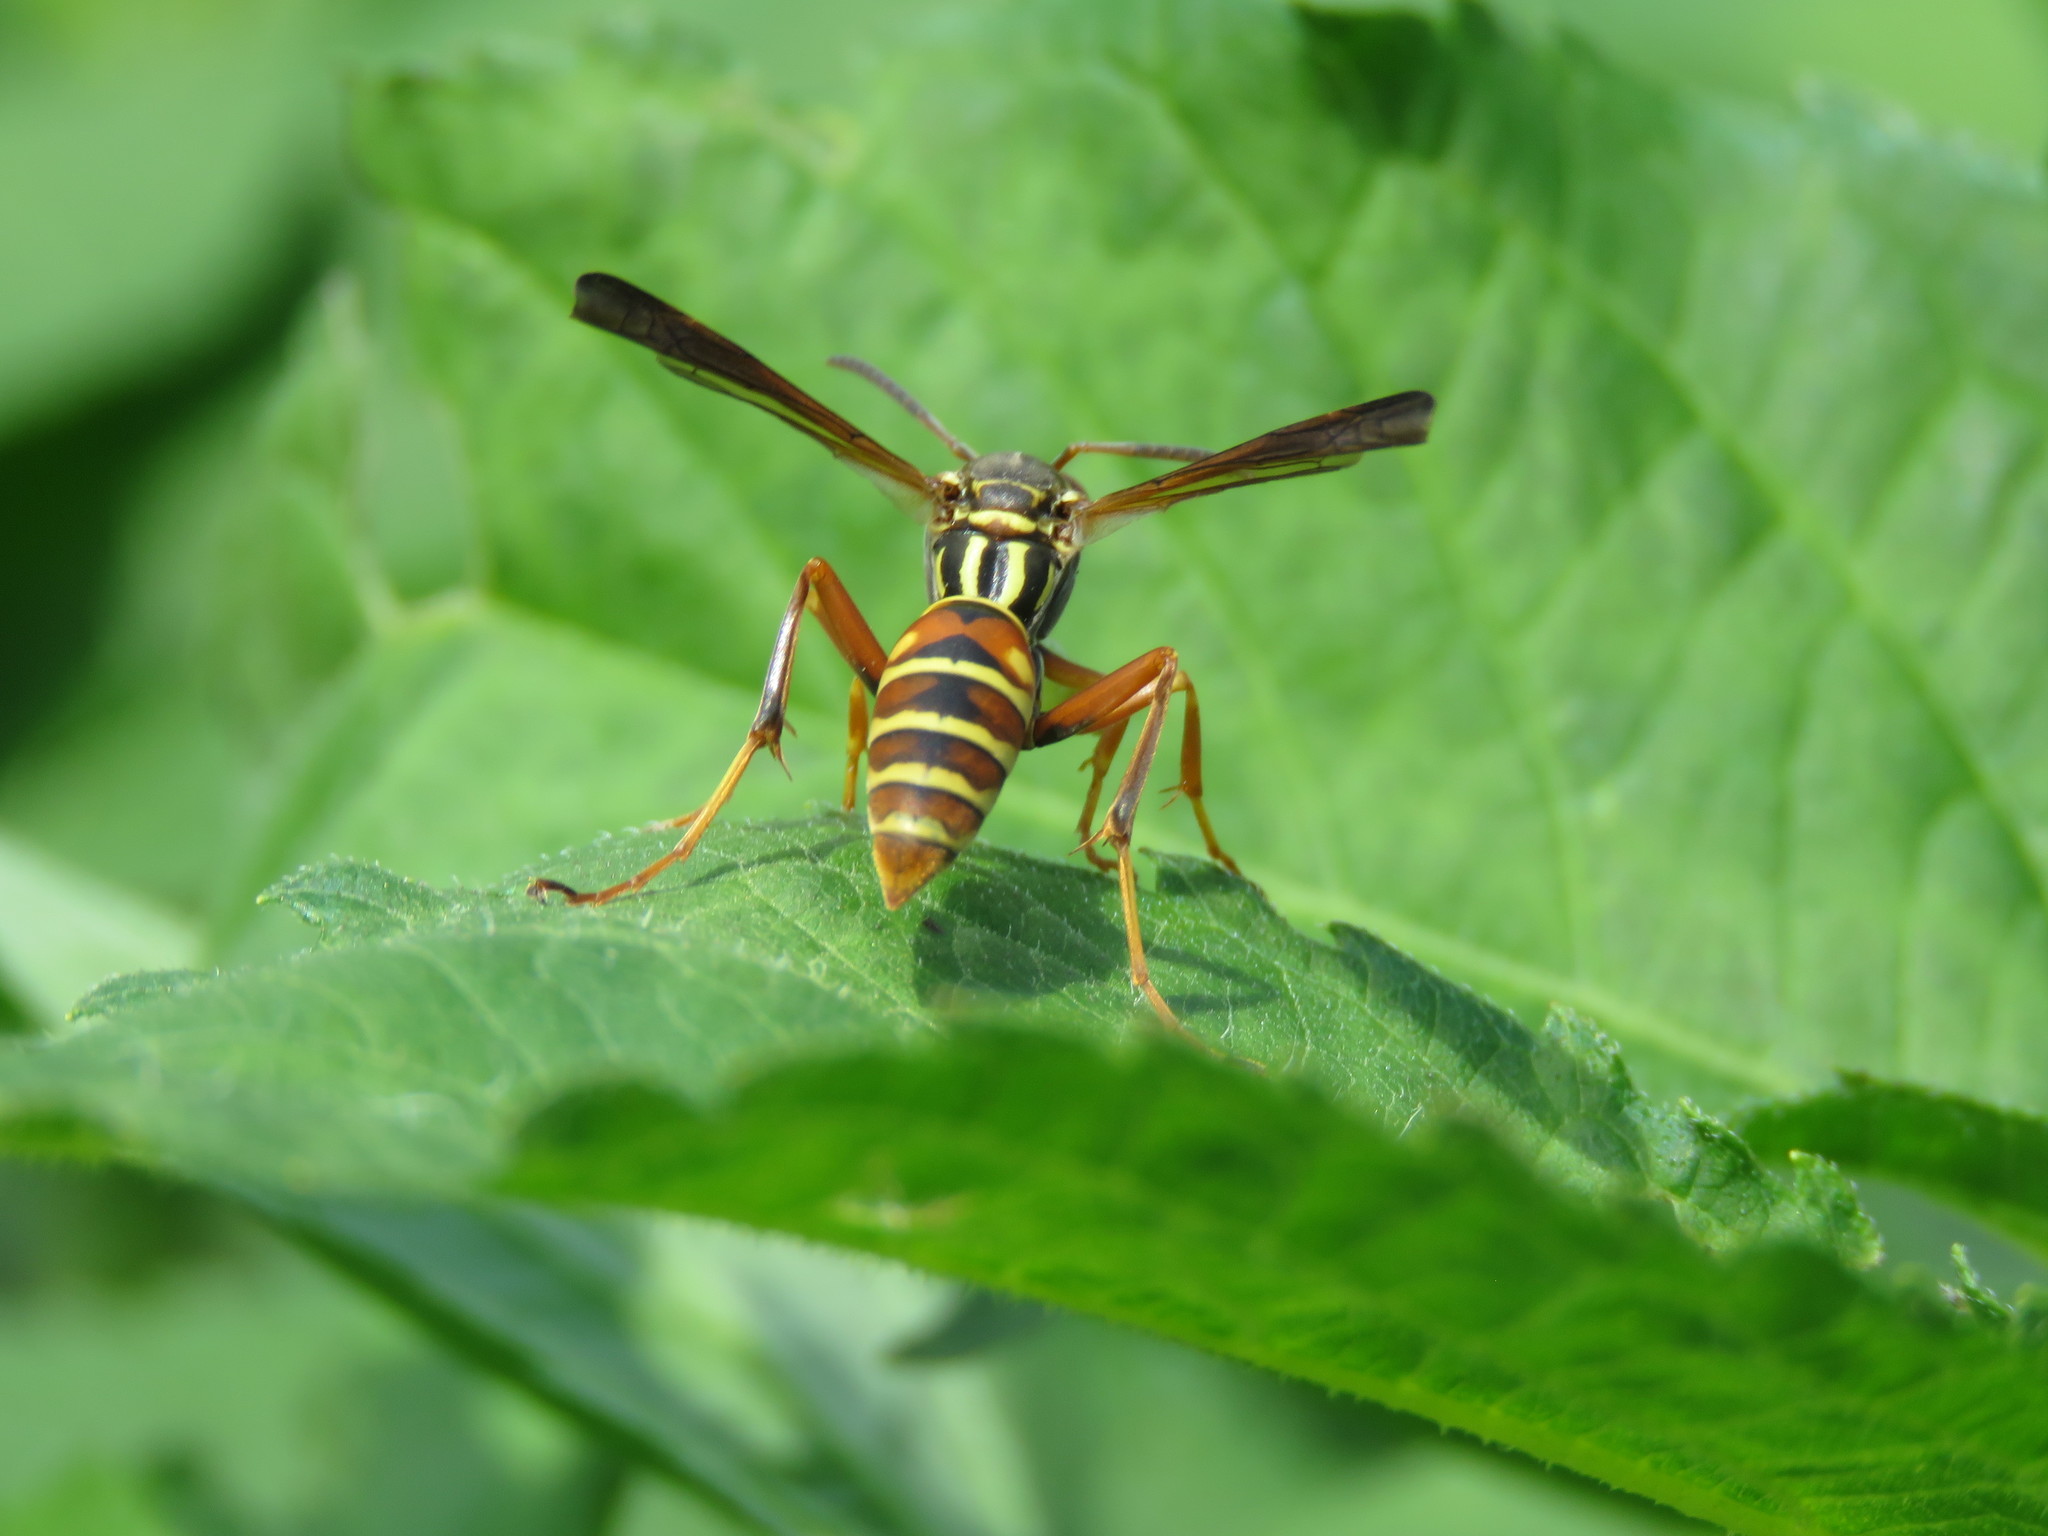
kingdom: Animalia
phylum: Arthropoda
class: Insecta
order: Hymenoptera
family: Eumenidae
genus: Polistes
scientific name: Polistes fuscatus
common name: Dark paper wasp
